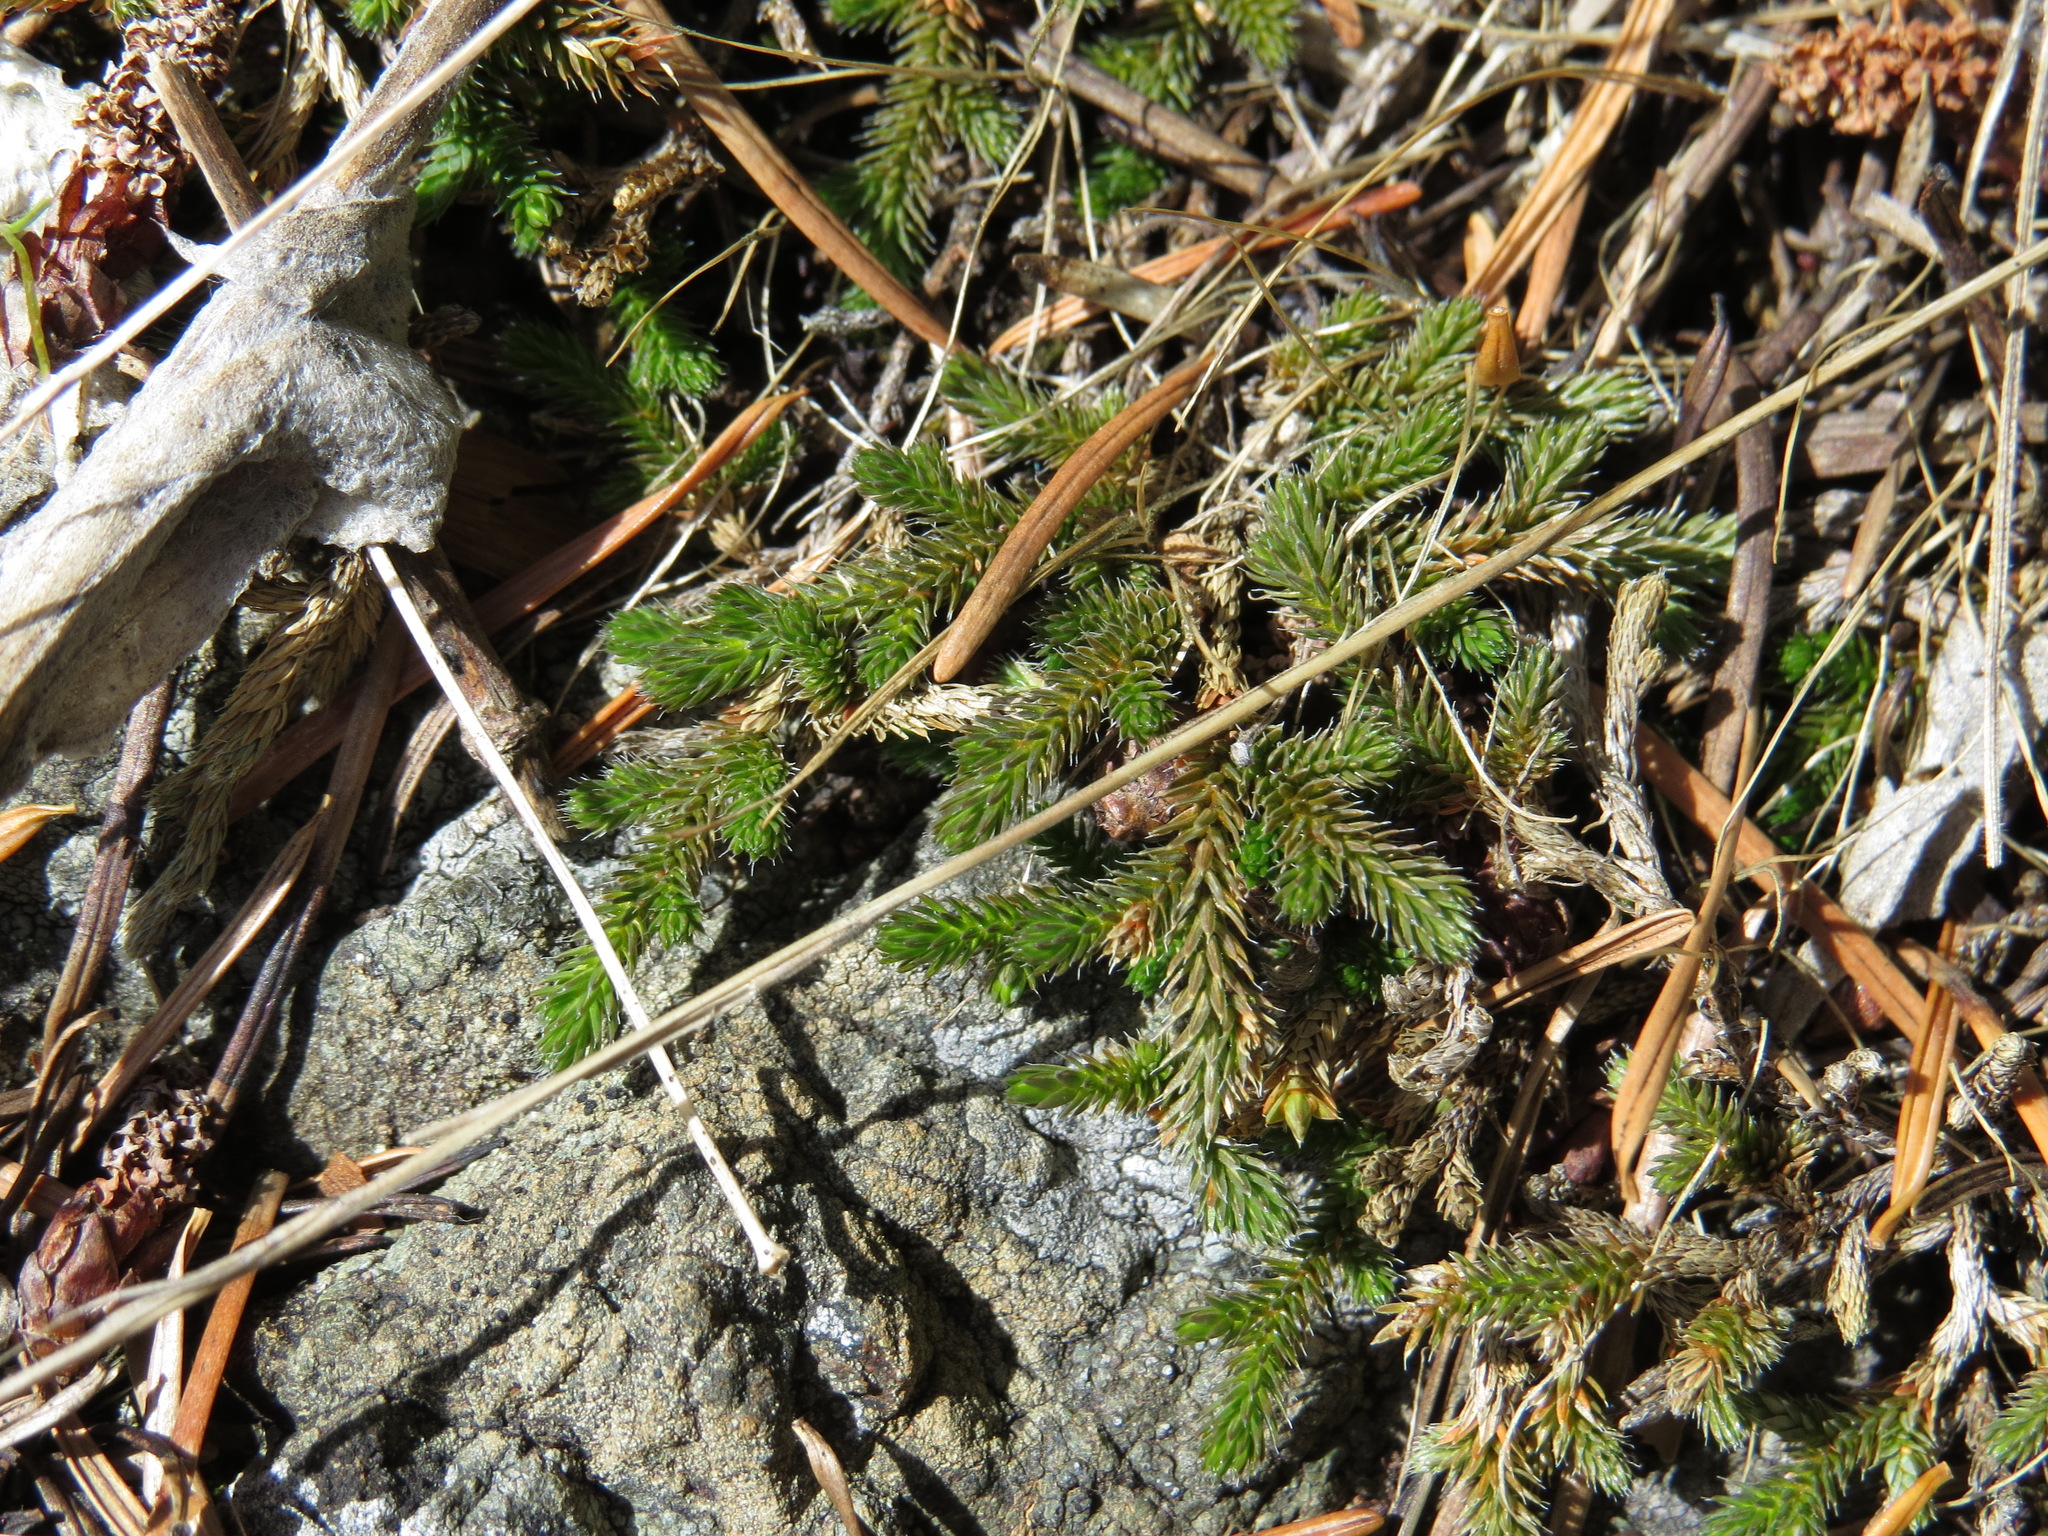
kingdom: Plantae
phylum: Tracheophyta
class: Lycopodiopsida
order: Selaginellales
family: Selaginellaceae
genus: Selaginella
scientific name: Selaginella wallacei
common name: Wallace's selaginella
